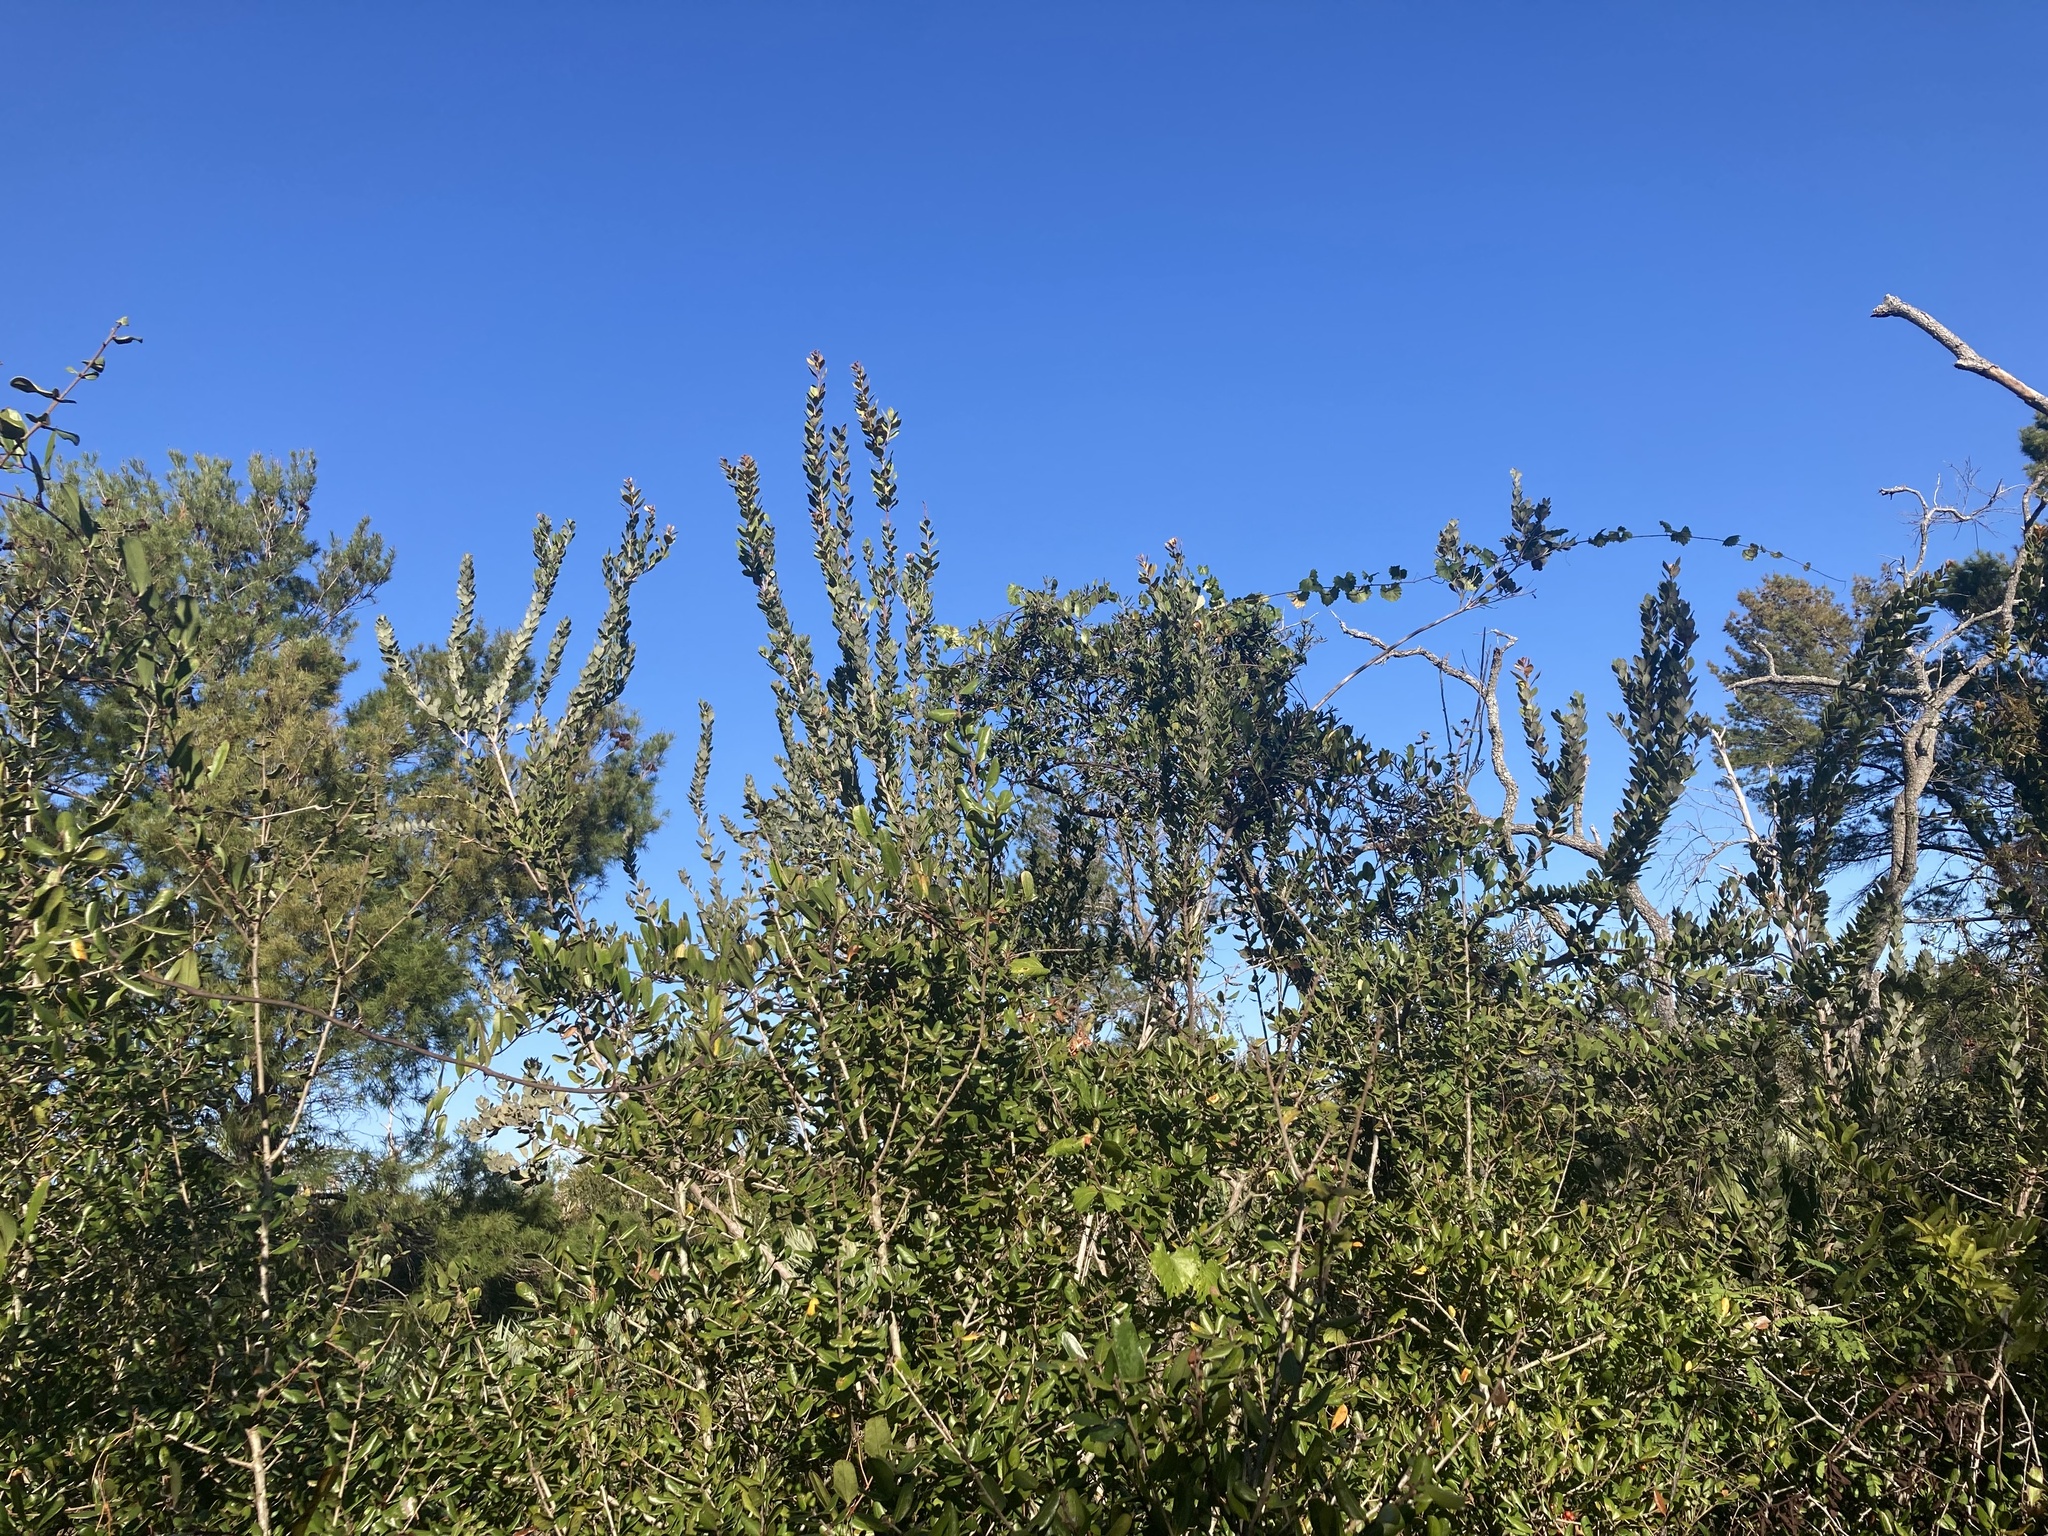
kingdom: Plantae
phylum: Tracheophyta
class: Magnoliopsida
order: Ericales
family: Ericaceae
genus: Lyonia
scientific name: Lyonia fruticosa
